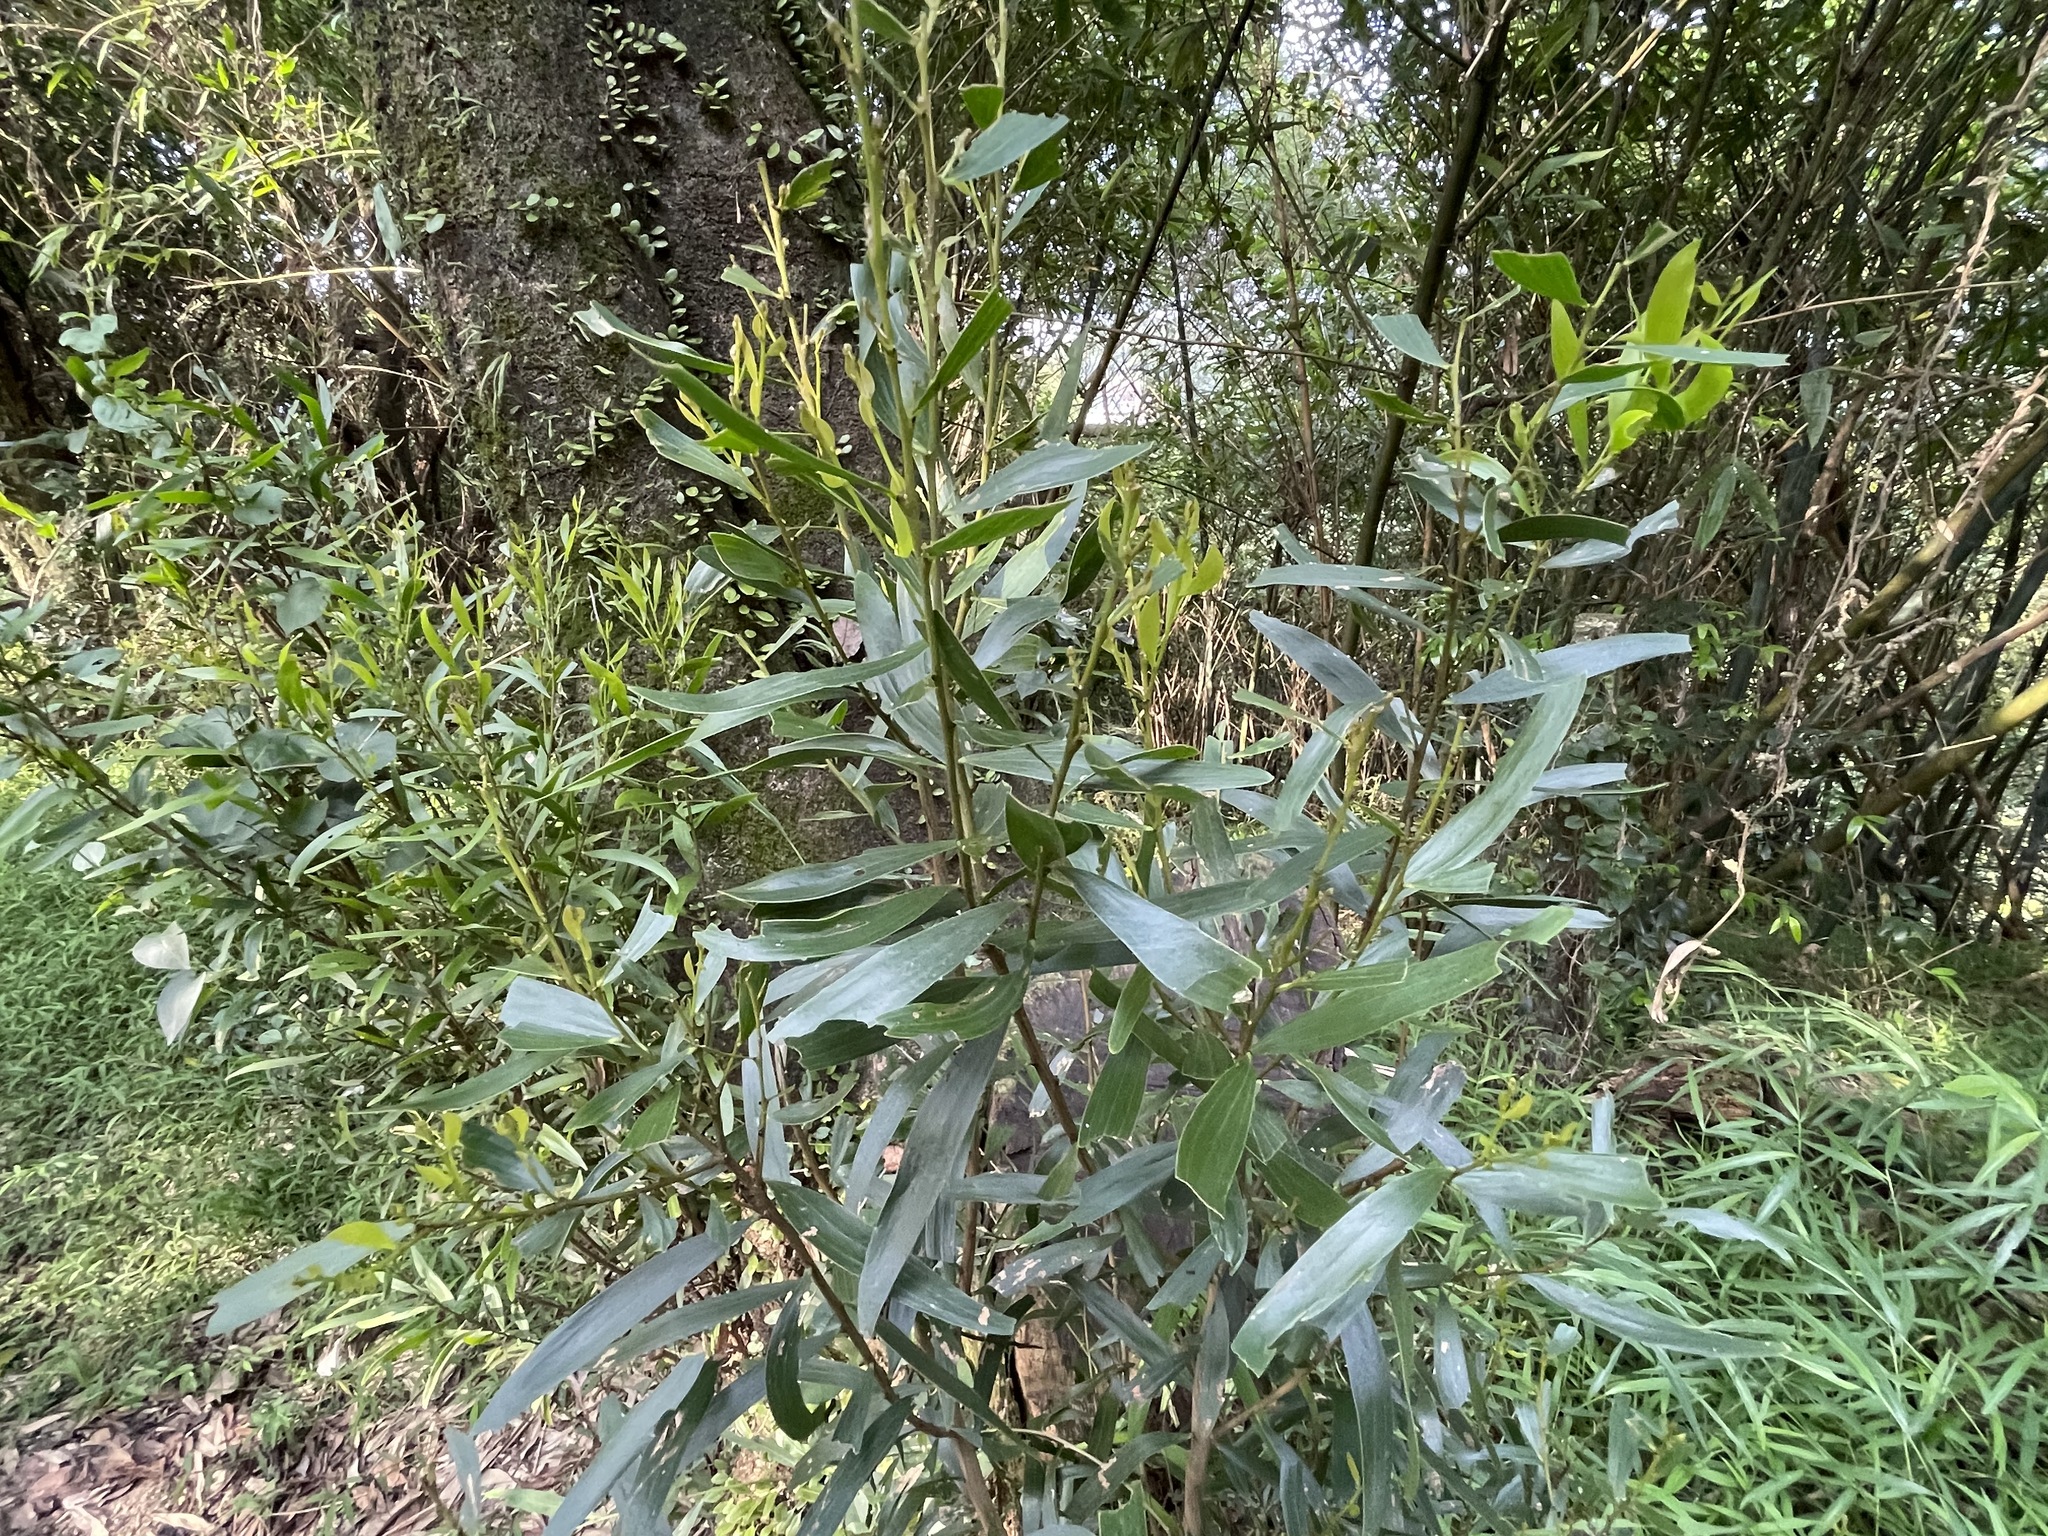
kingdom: Plantae
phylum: Tracheophyta
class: Magnoliopsida
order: Fabales
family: Fabaceae
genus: Acacia
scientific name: Acacia confusa
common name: Formosan koa
